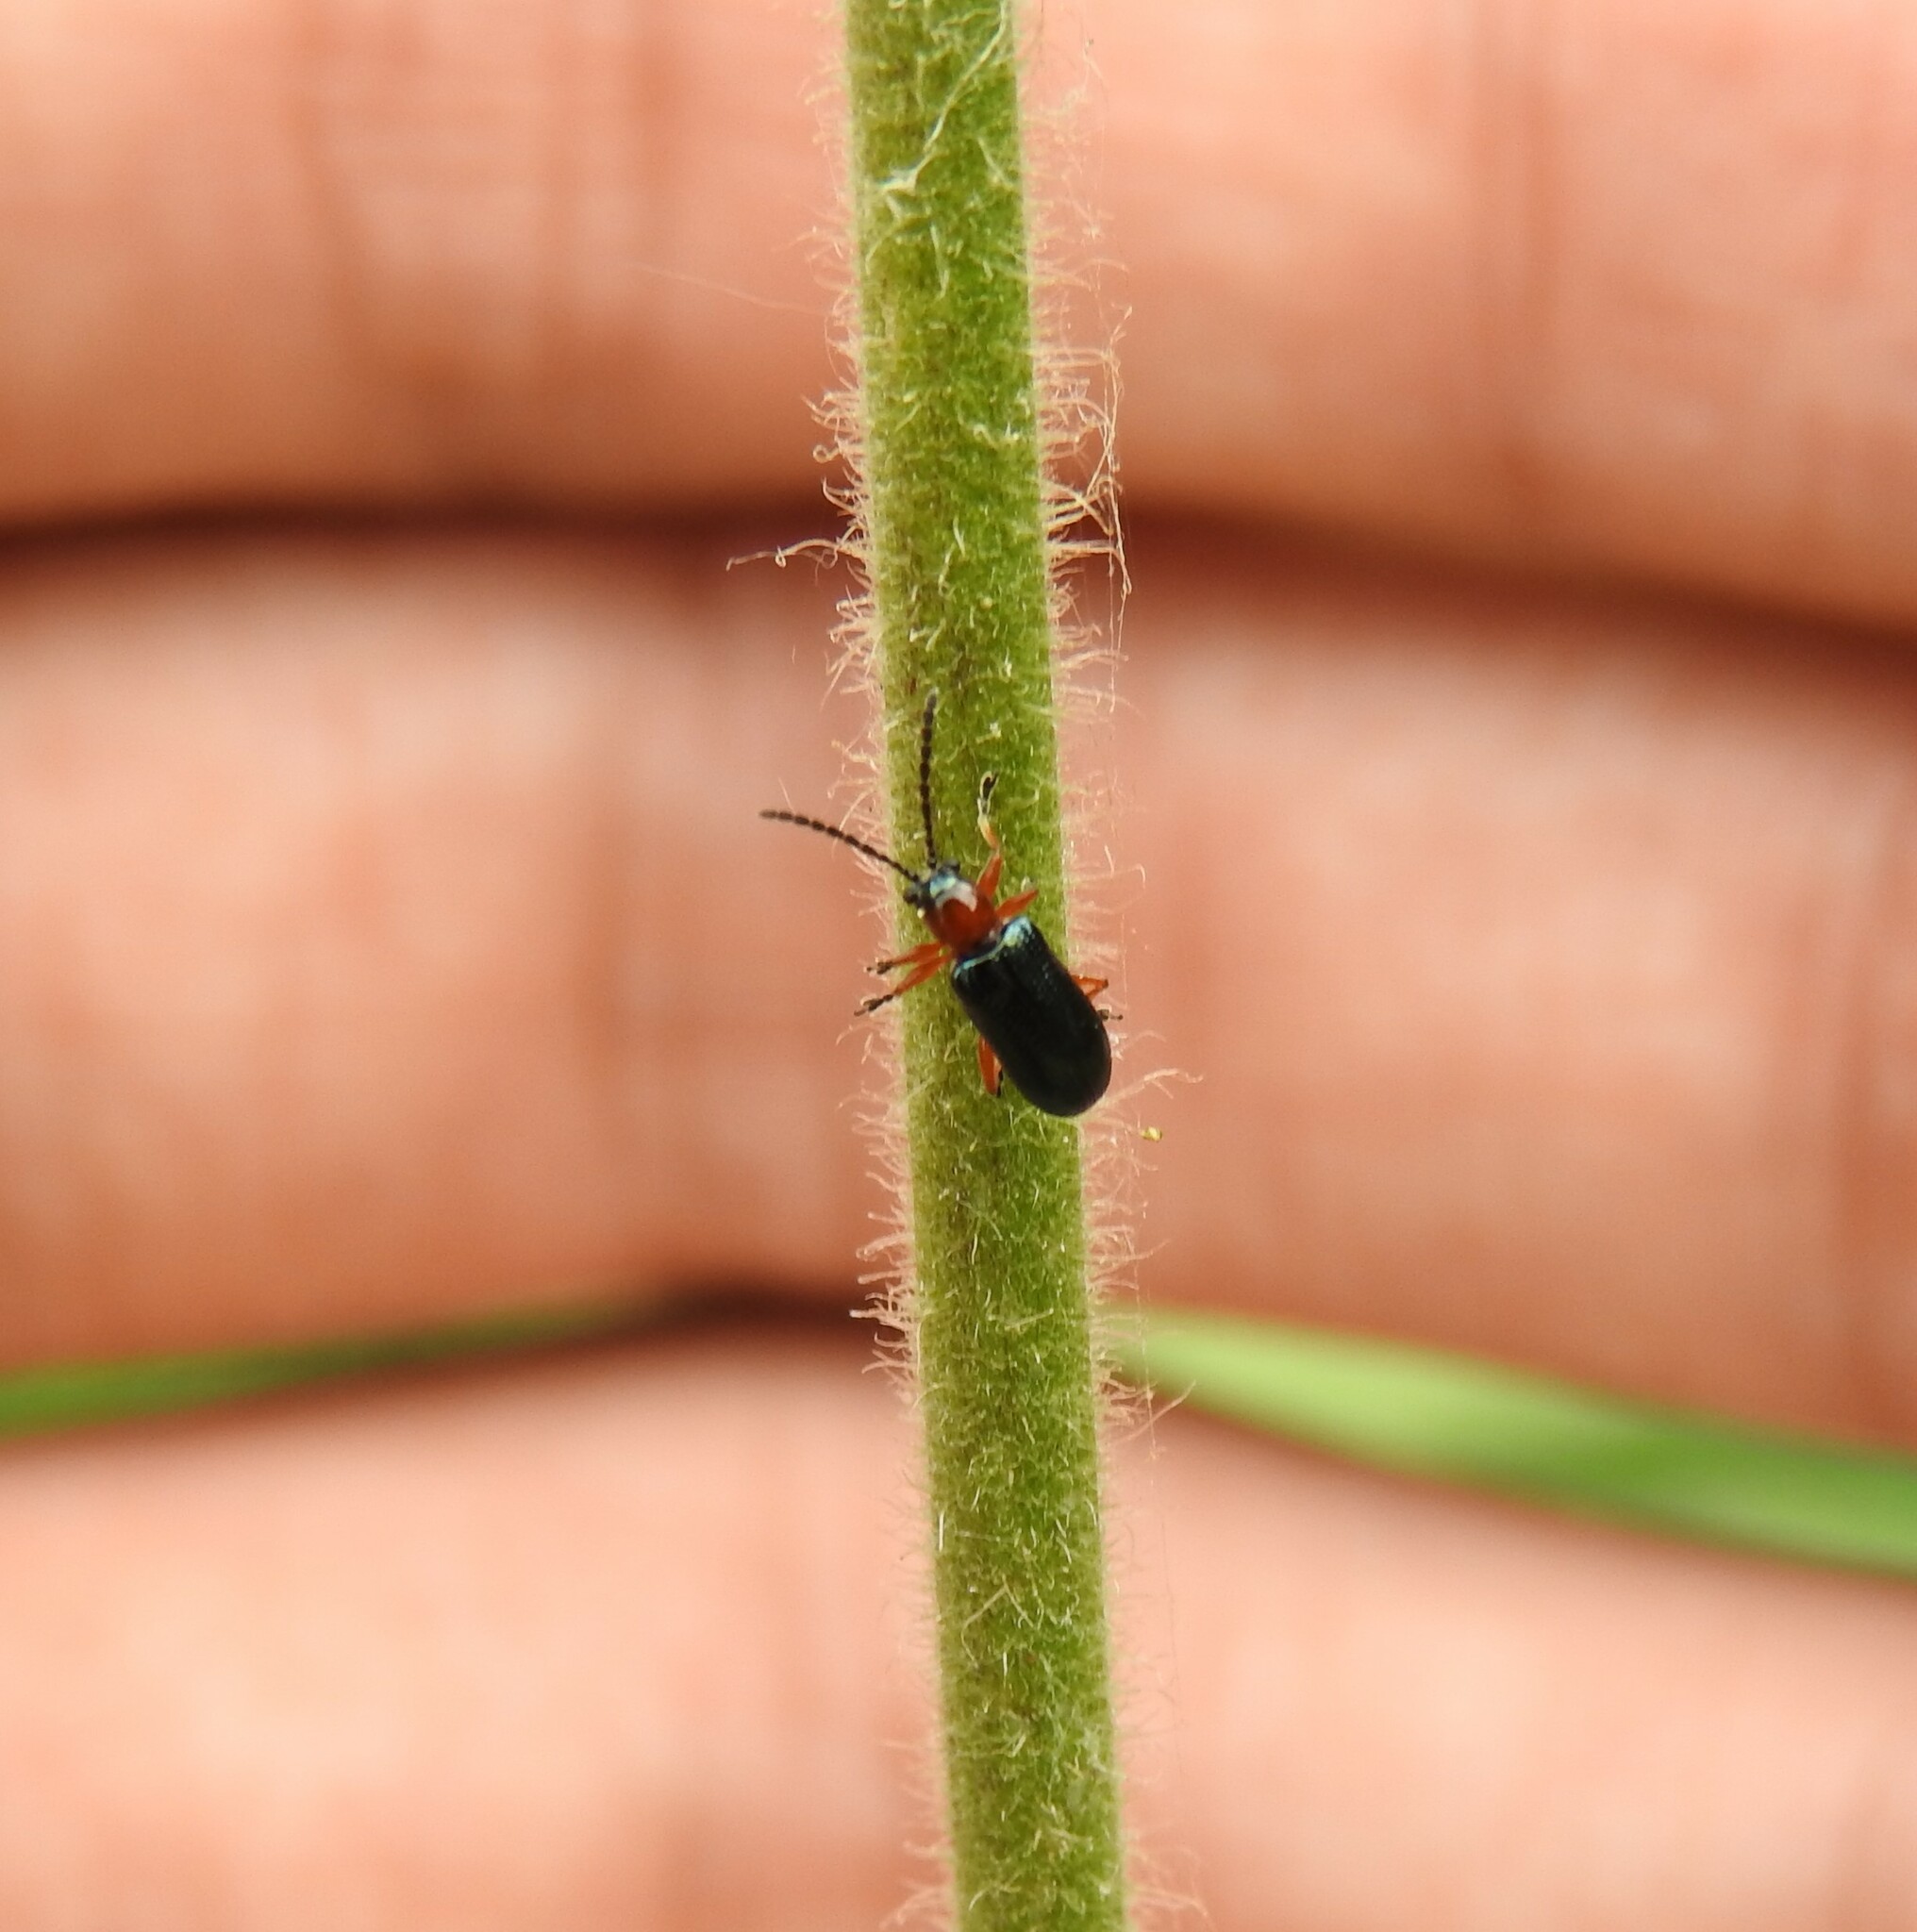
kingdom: Animalia
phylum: Arthropoda
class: Insecta
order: Coleoptera
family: Chrysomelidae
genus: Oulema
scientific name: Oulema
